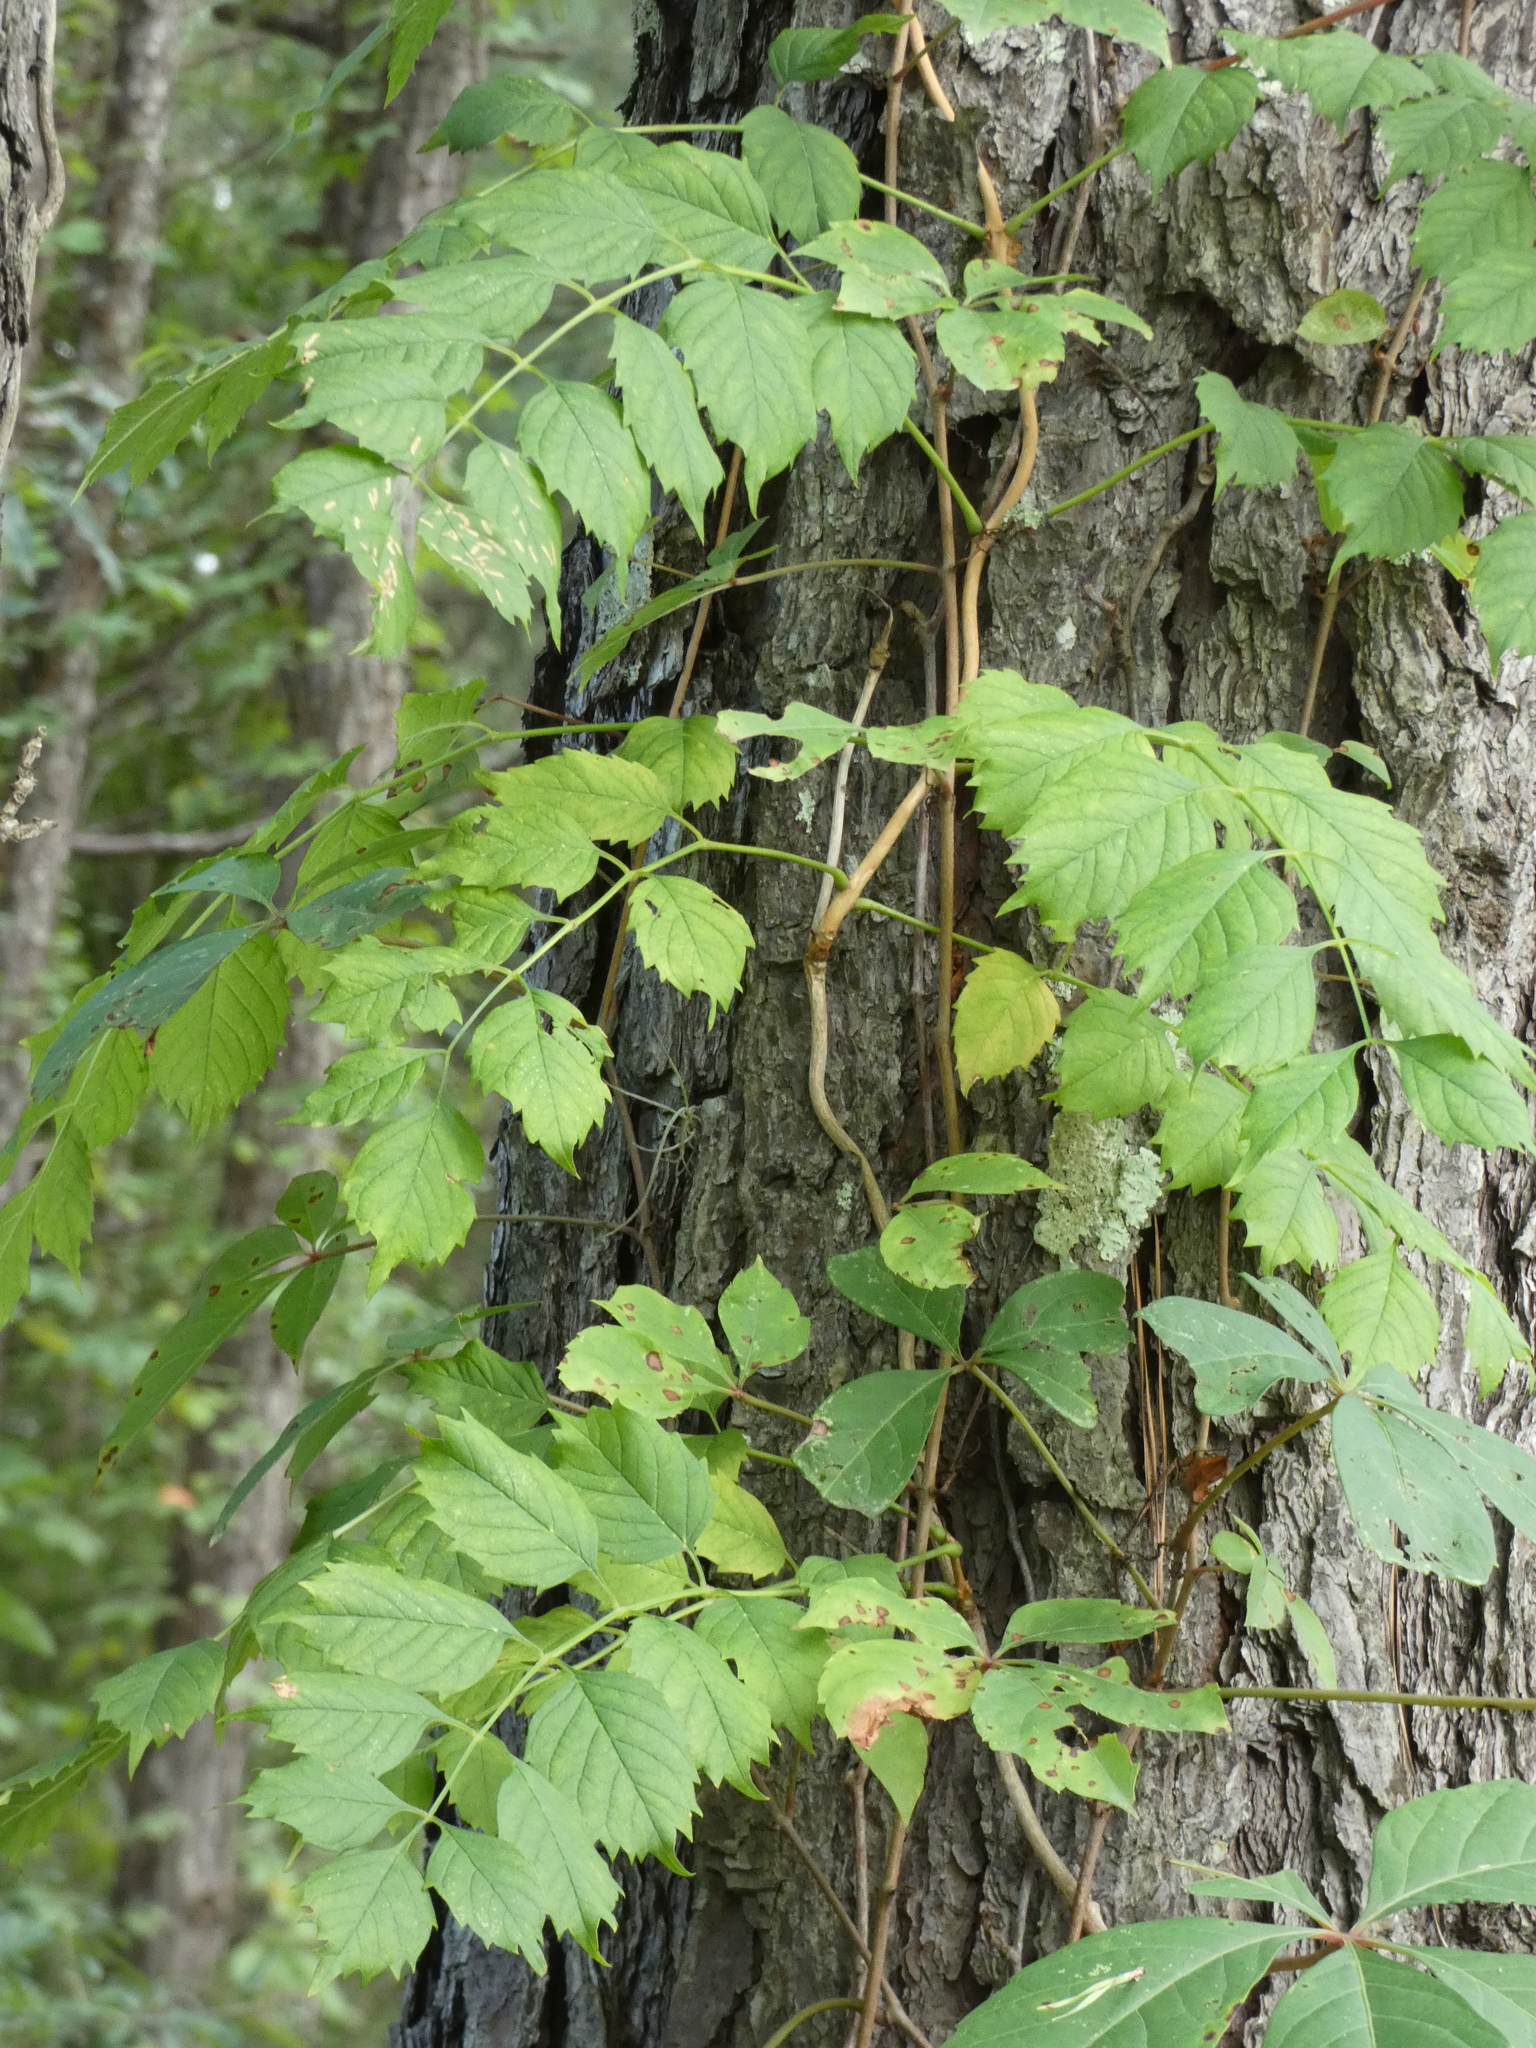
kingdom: Plantae
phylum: Tracheophyta
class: Magnoliopsida
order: Lamiales
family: Bignoniaceae
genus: Campsis
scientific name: Campsis radicans
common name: Trumpet-creeper
